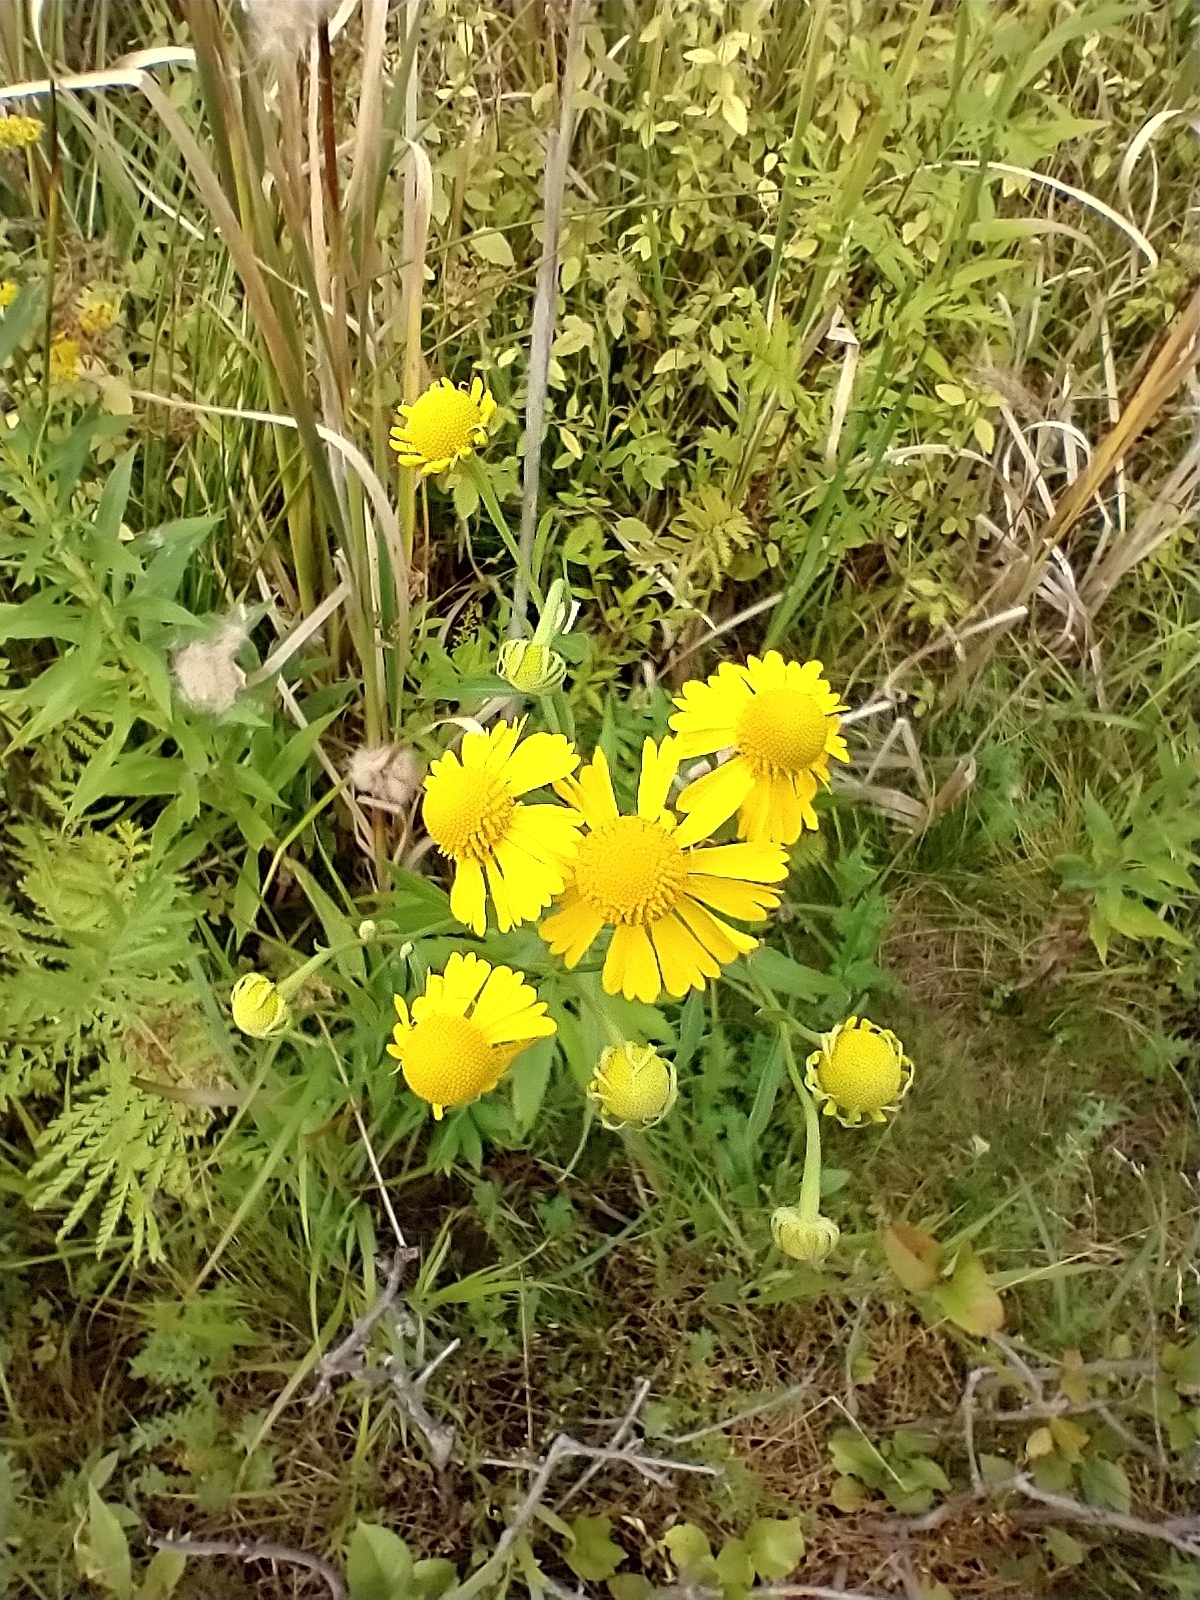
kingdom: Plantae
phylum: Tracheophyta
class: Magnoliopsida
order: Asterales
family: Asteraceae
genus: Helenium
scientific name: Helenium autumnale
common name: Sneezeweed
